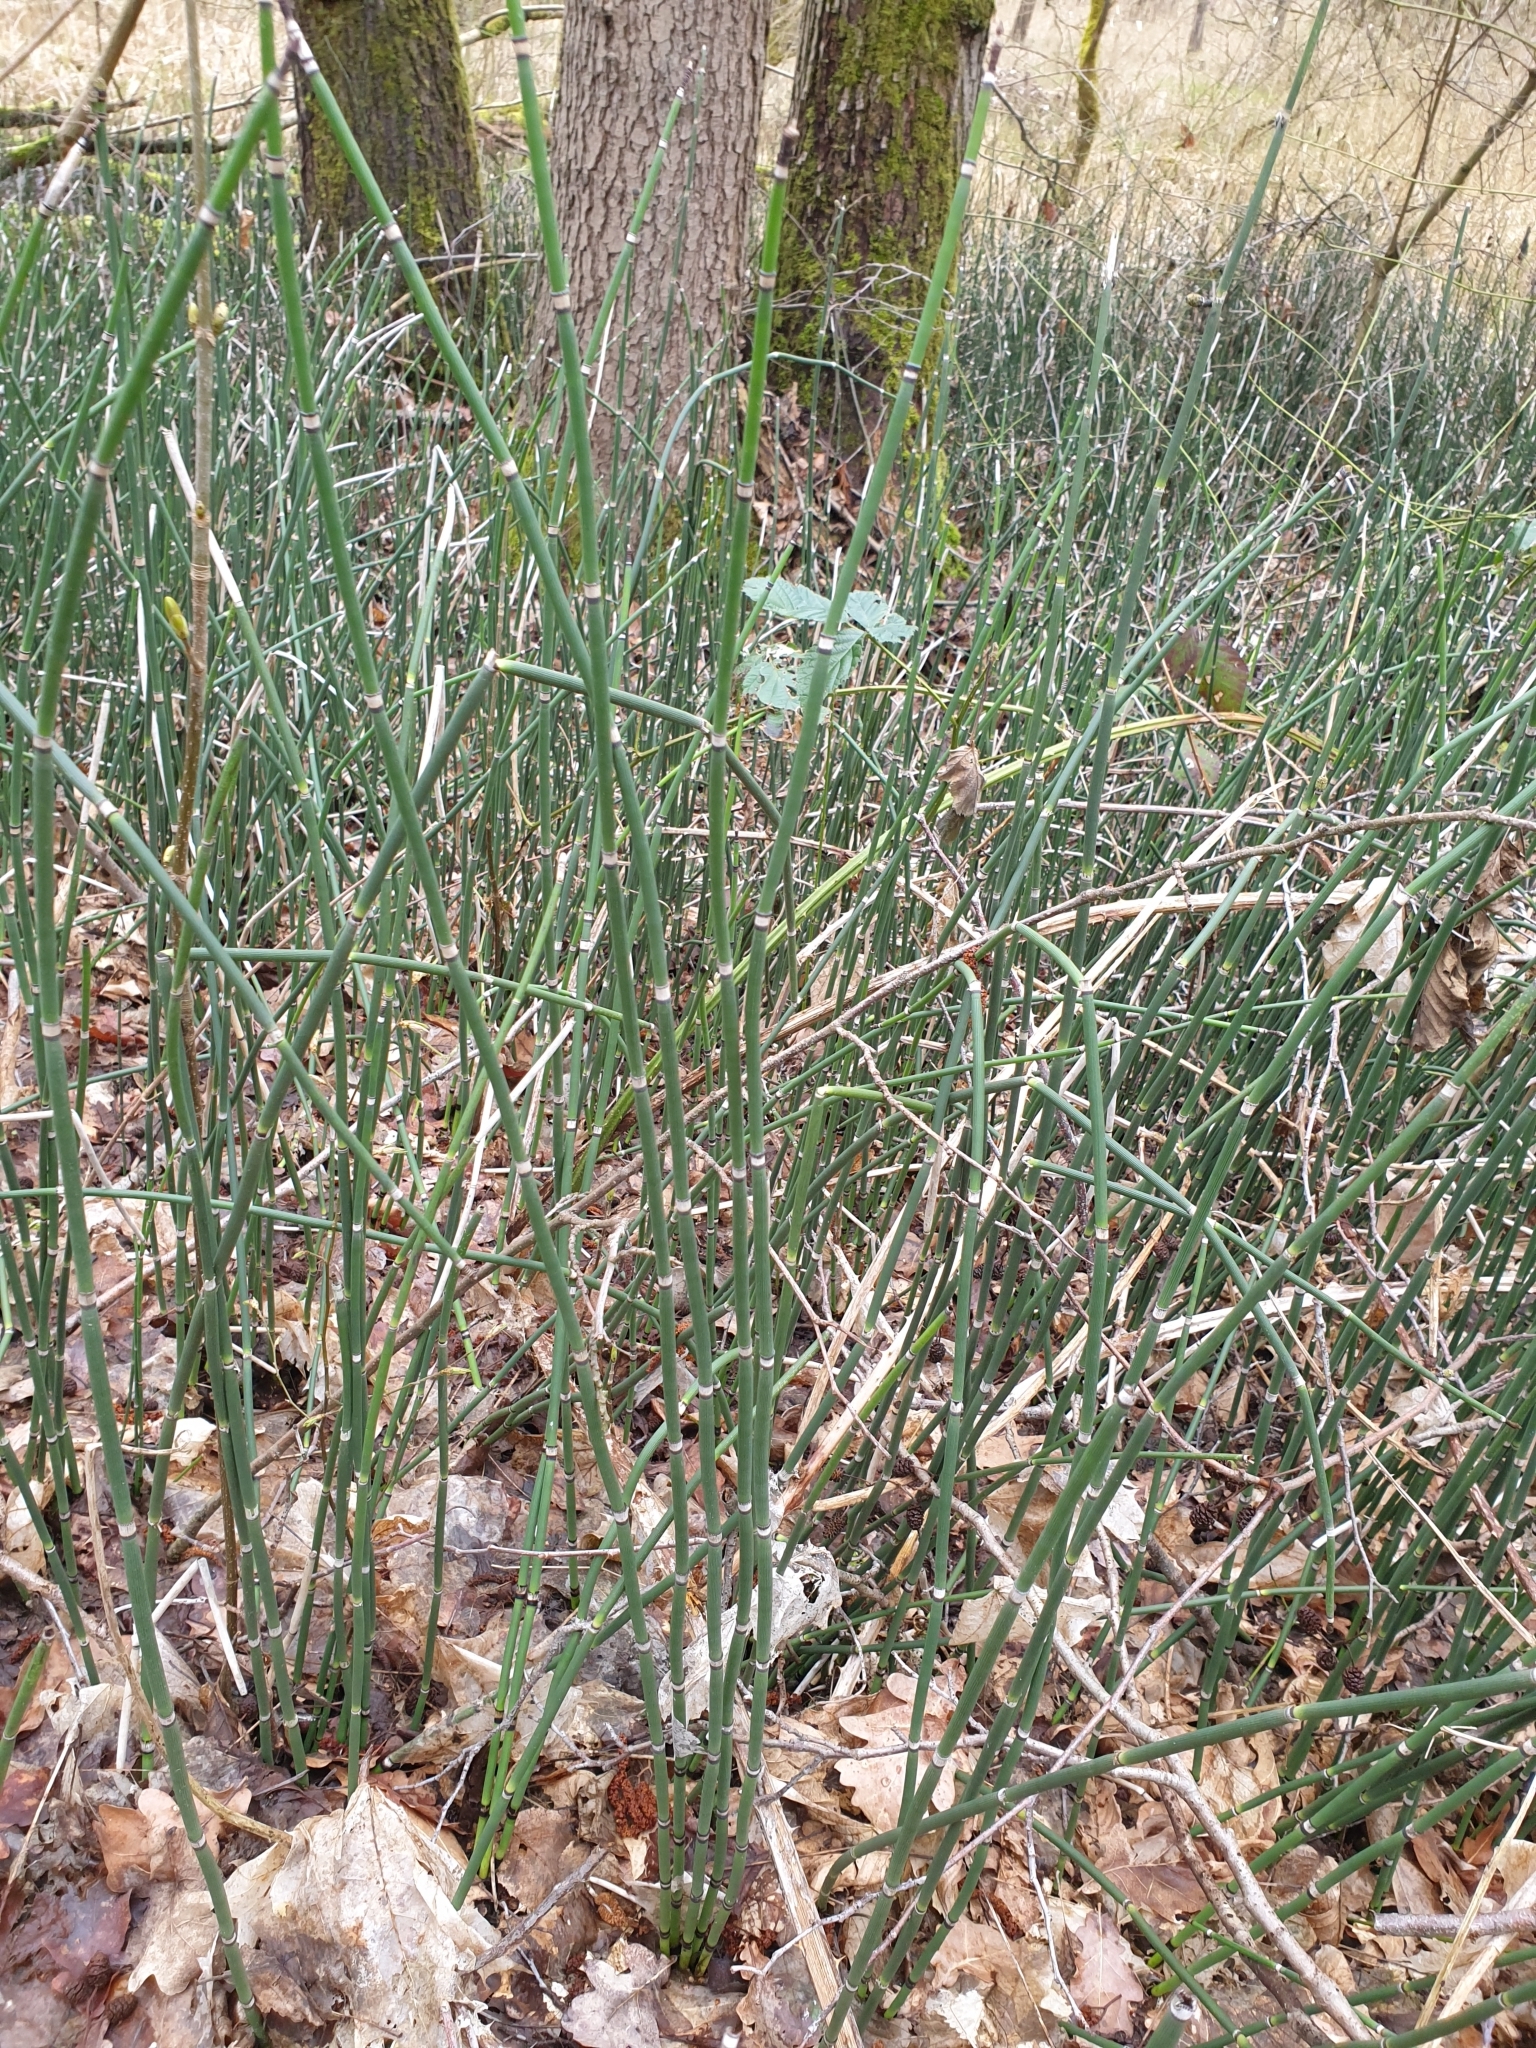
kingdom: Plantae
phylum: Tracheophyta
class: Polypodiopsida
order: Equisetales
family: Equisetaceae
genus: Equisetum
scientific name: Equisetum hyemale
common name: Rough horsetail
